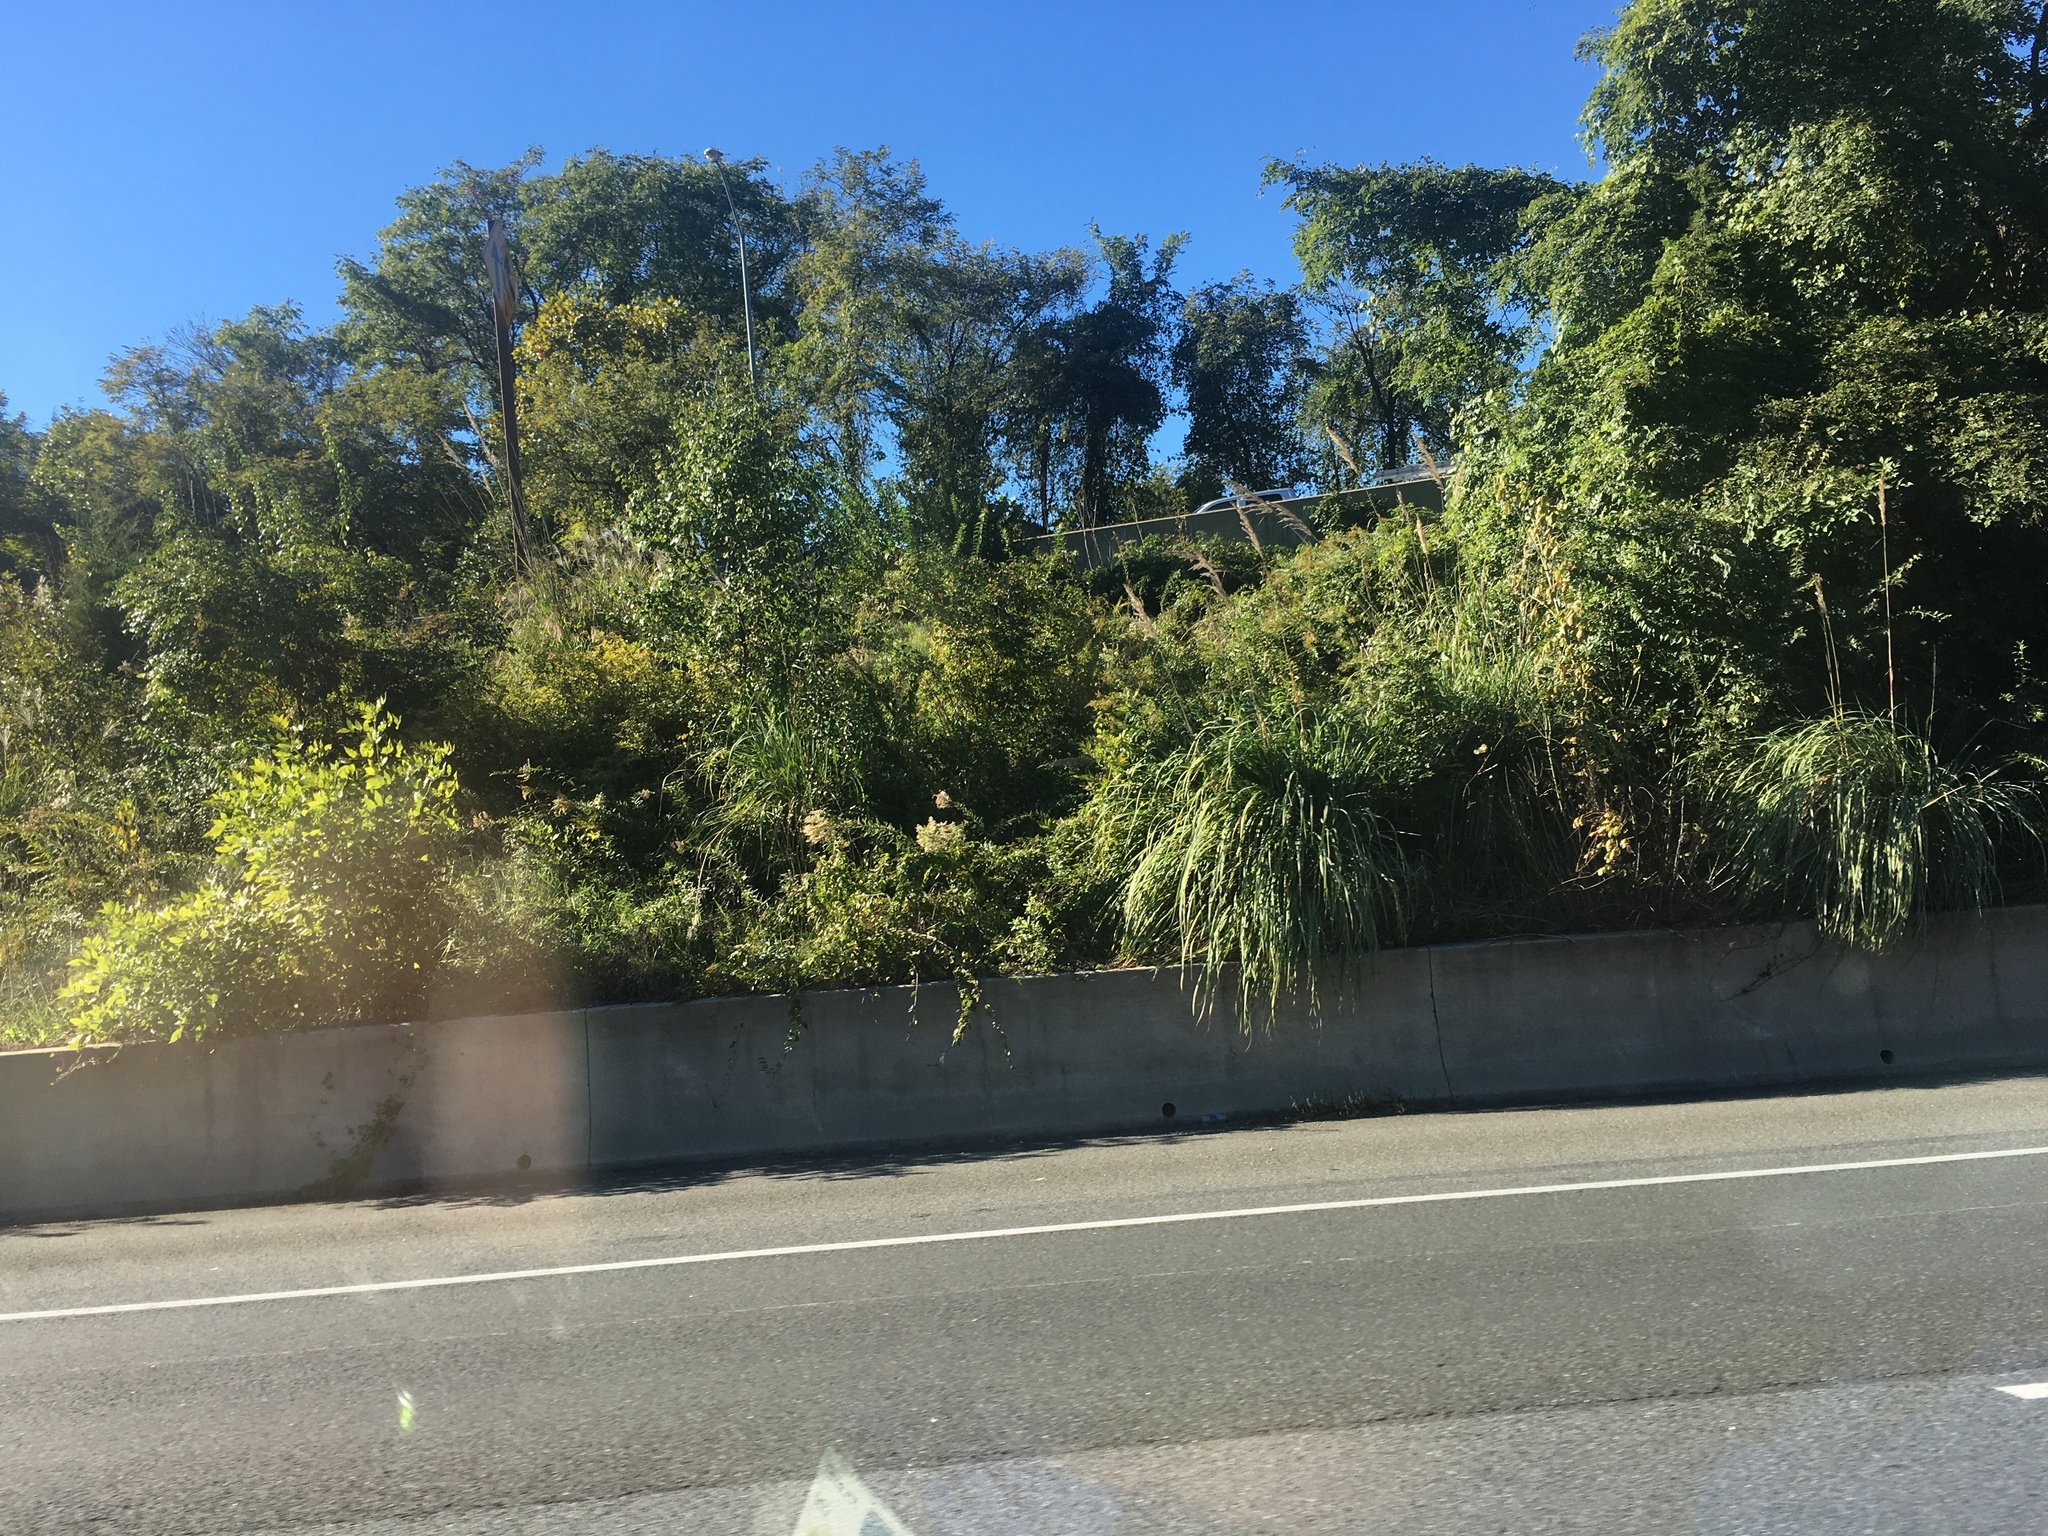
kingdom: Plantae
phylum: Tracheophyta
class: Liliopsida
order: Poales
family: Poaceae
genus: Tripidium
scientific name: Tripidium ravennae
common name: Ravenna grass
